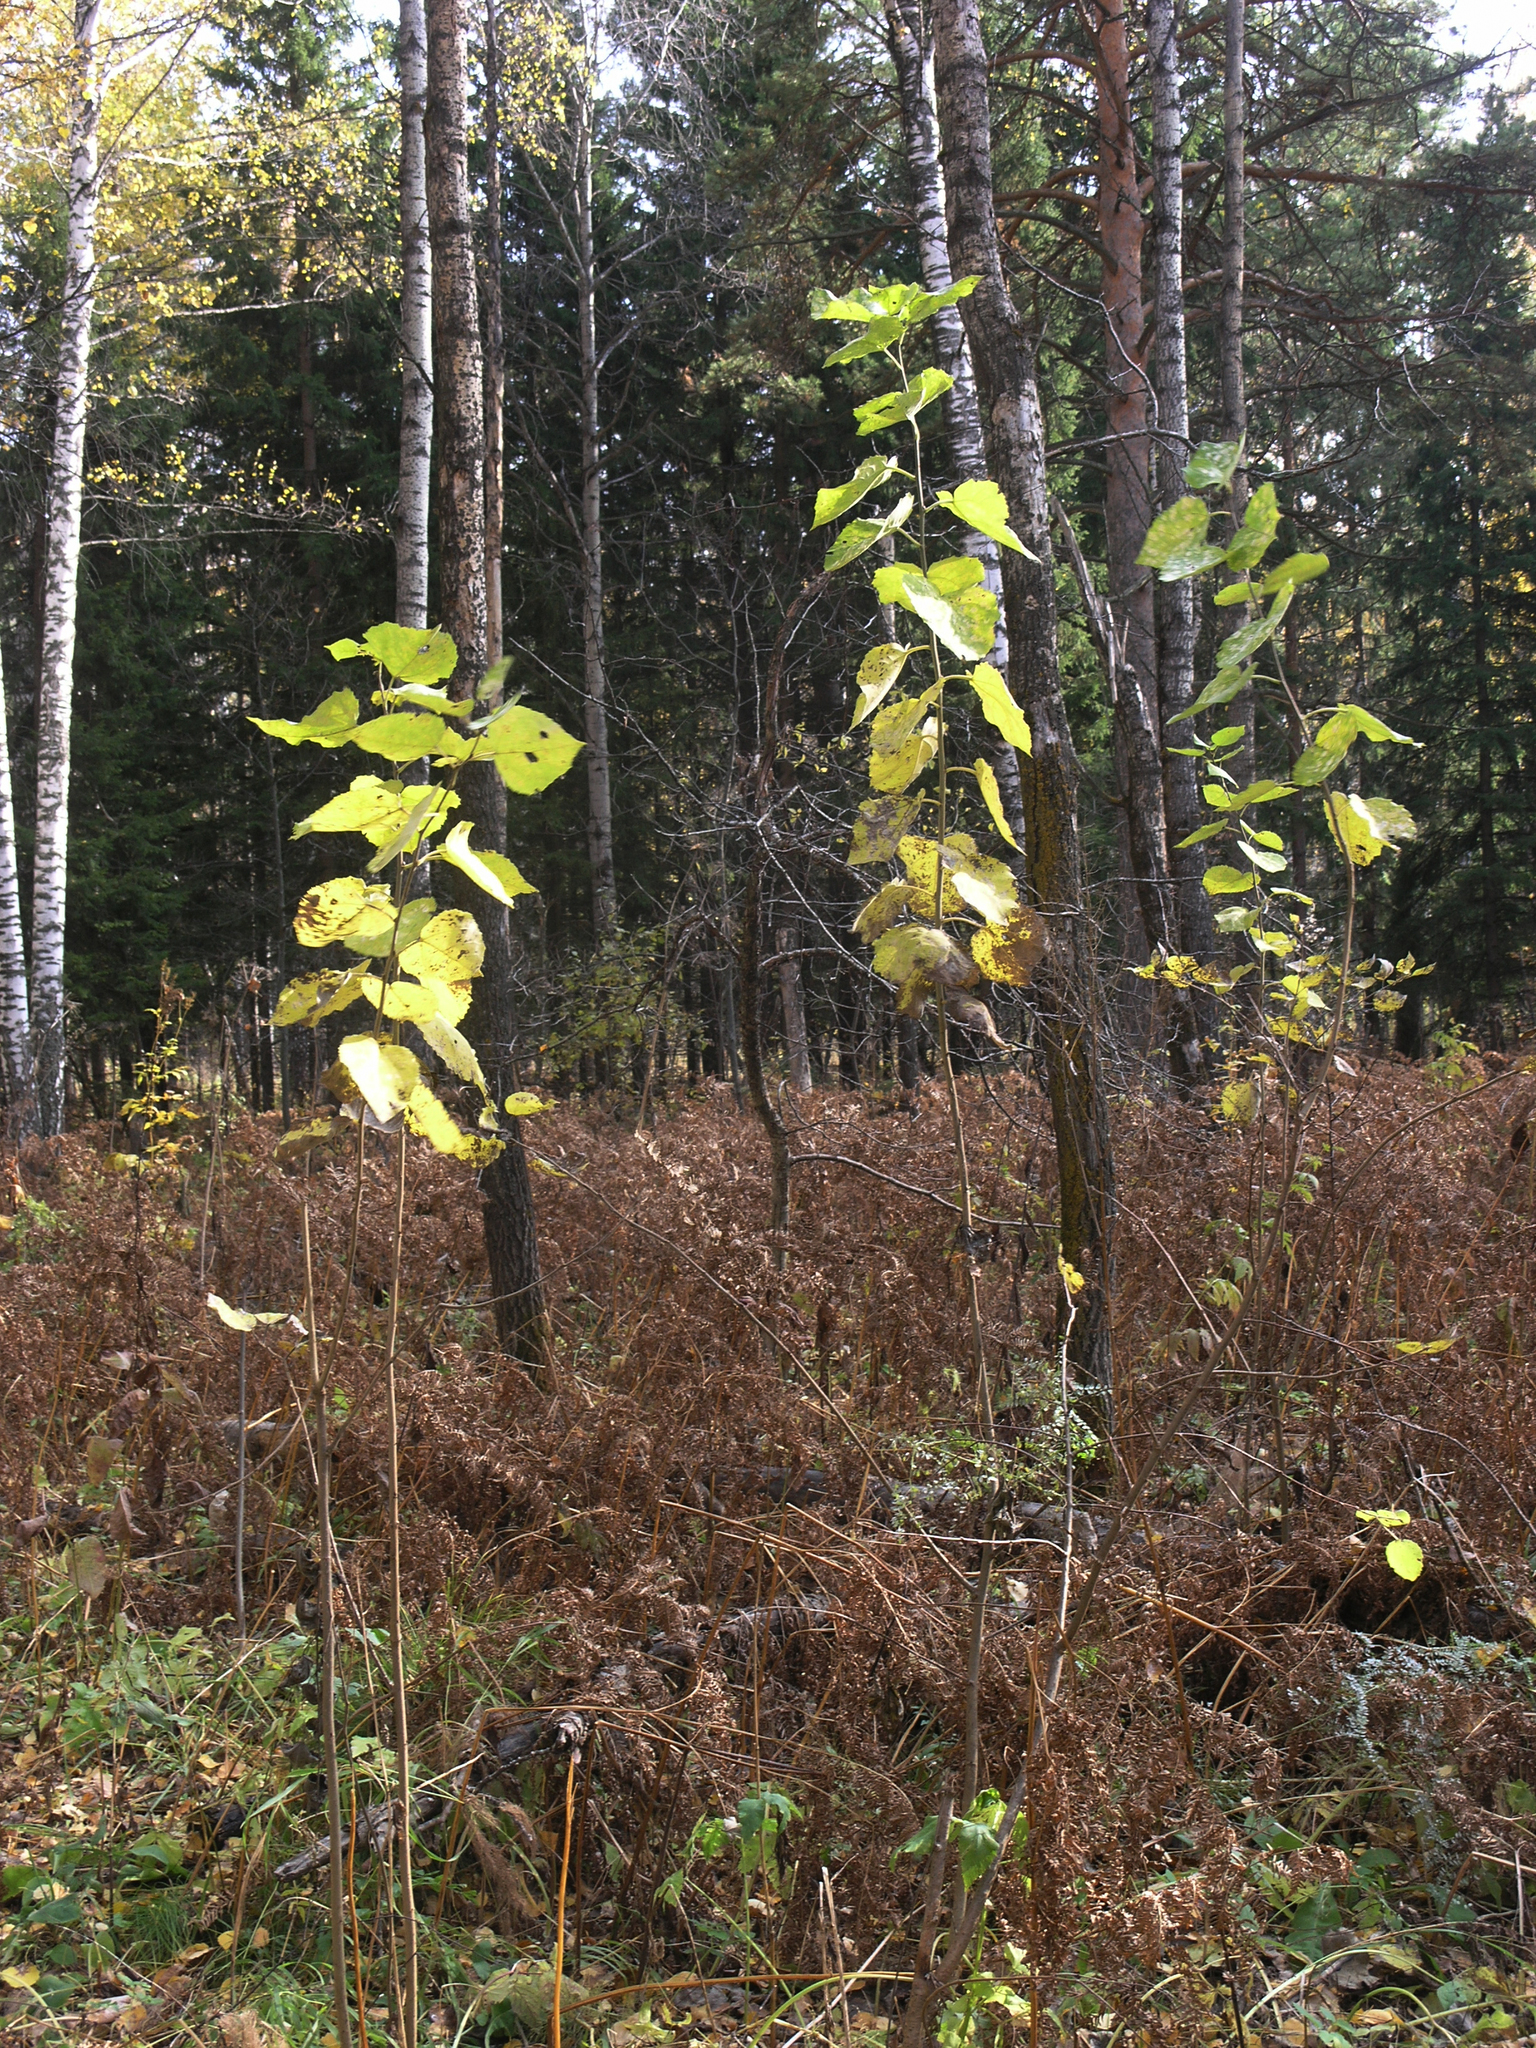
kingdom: Plantae
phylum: Tracheophyta
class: Magnoliopsida
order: Malpighiales
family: Salicaceae
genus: Populus
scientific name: Populus tremula
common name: European aspen
